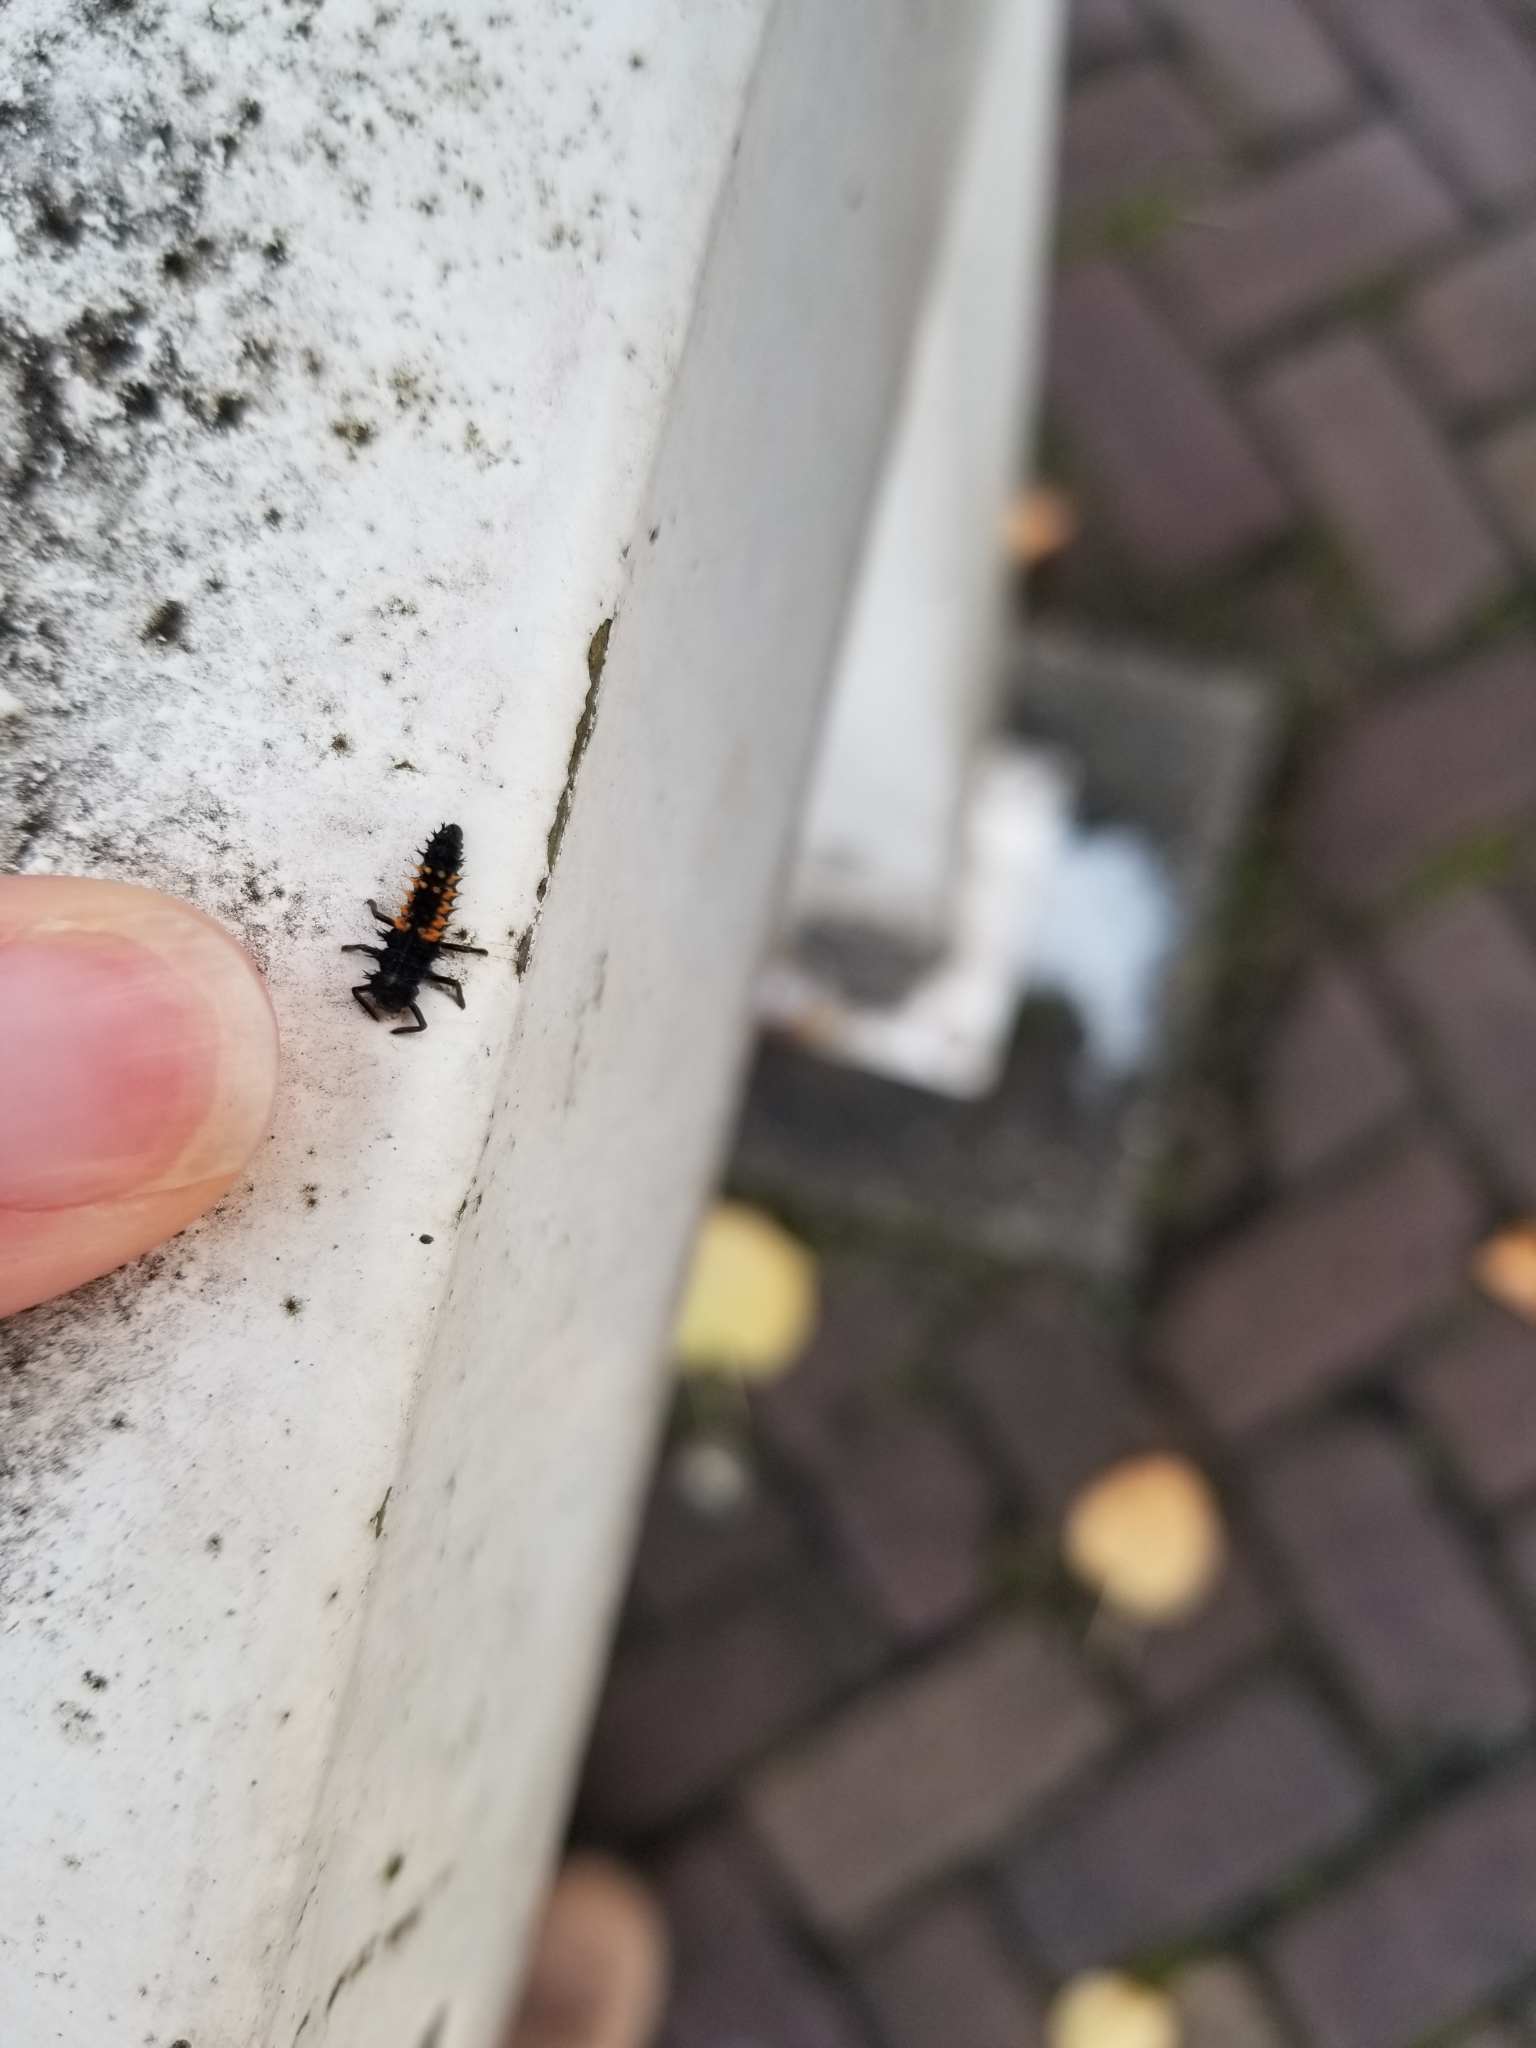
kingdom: Animalia
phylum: Arthropoda
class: Insecta
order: Coleoptera
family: Coccinellidae
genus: Harmonia
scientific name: Harmonia axyridis
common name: Harlequin ladybird
